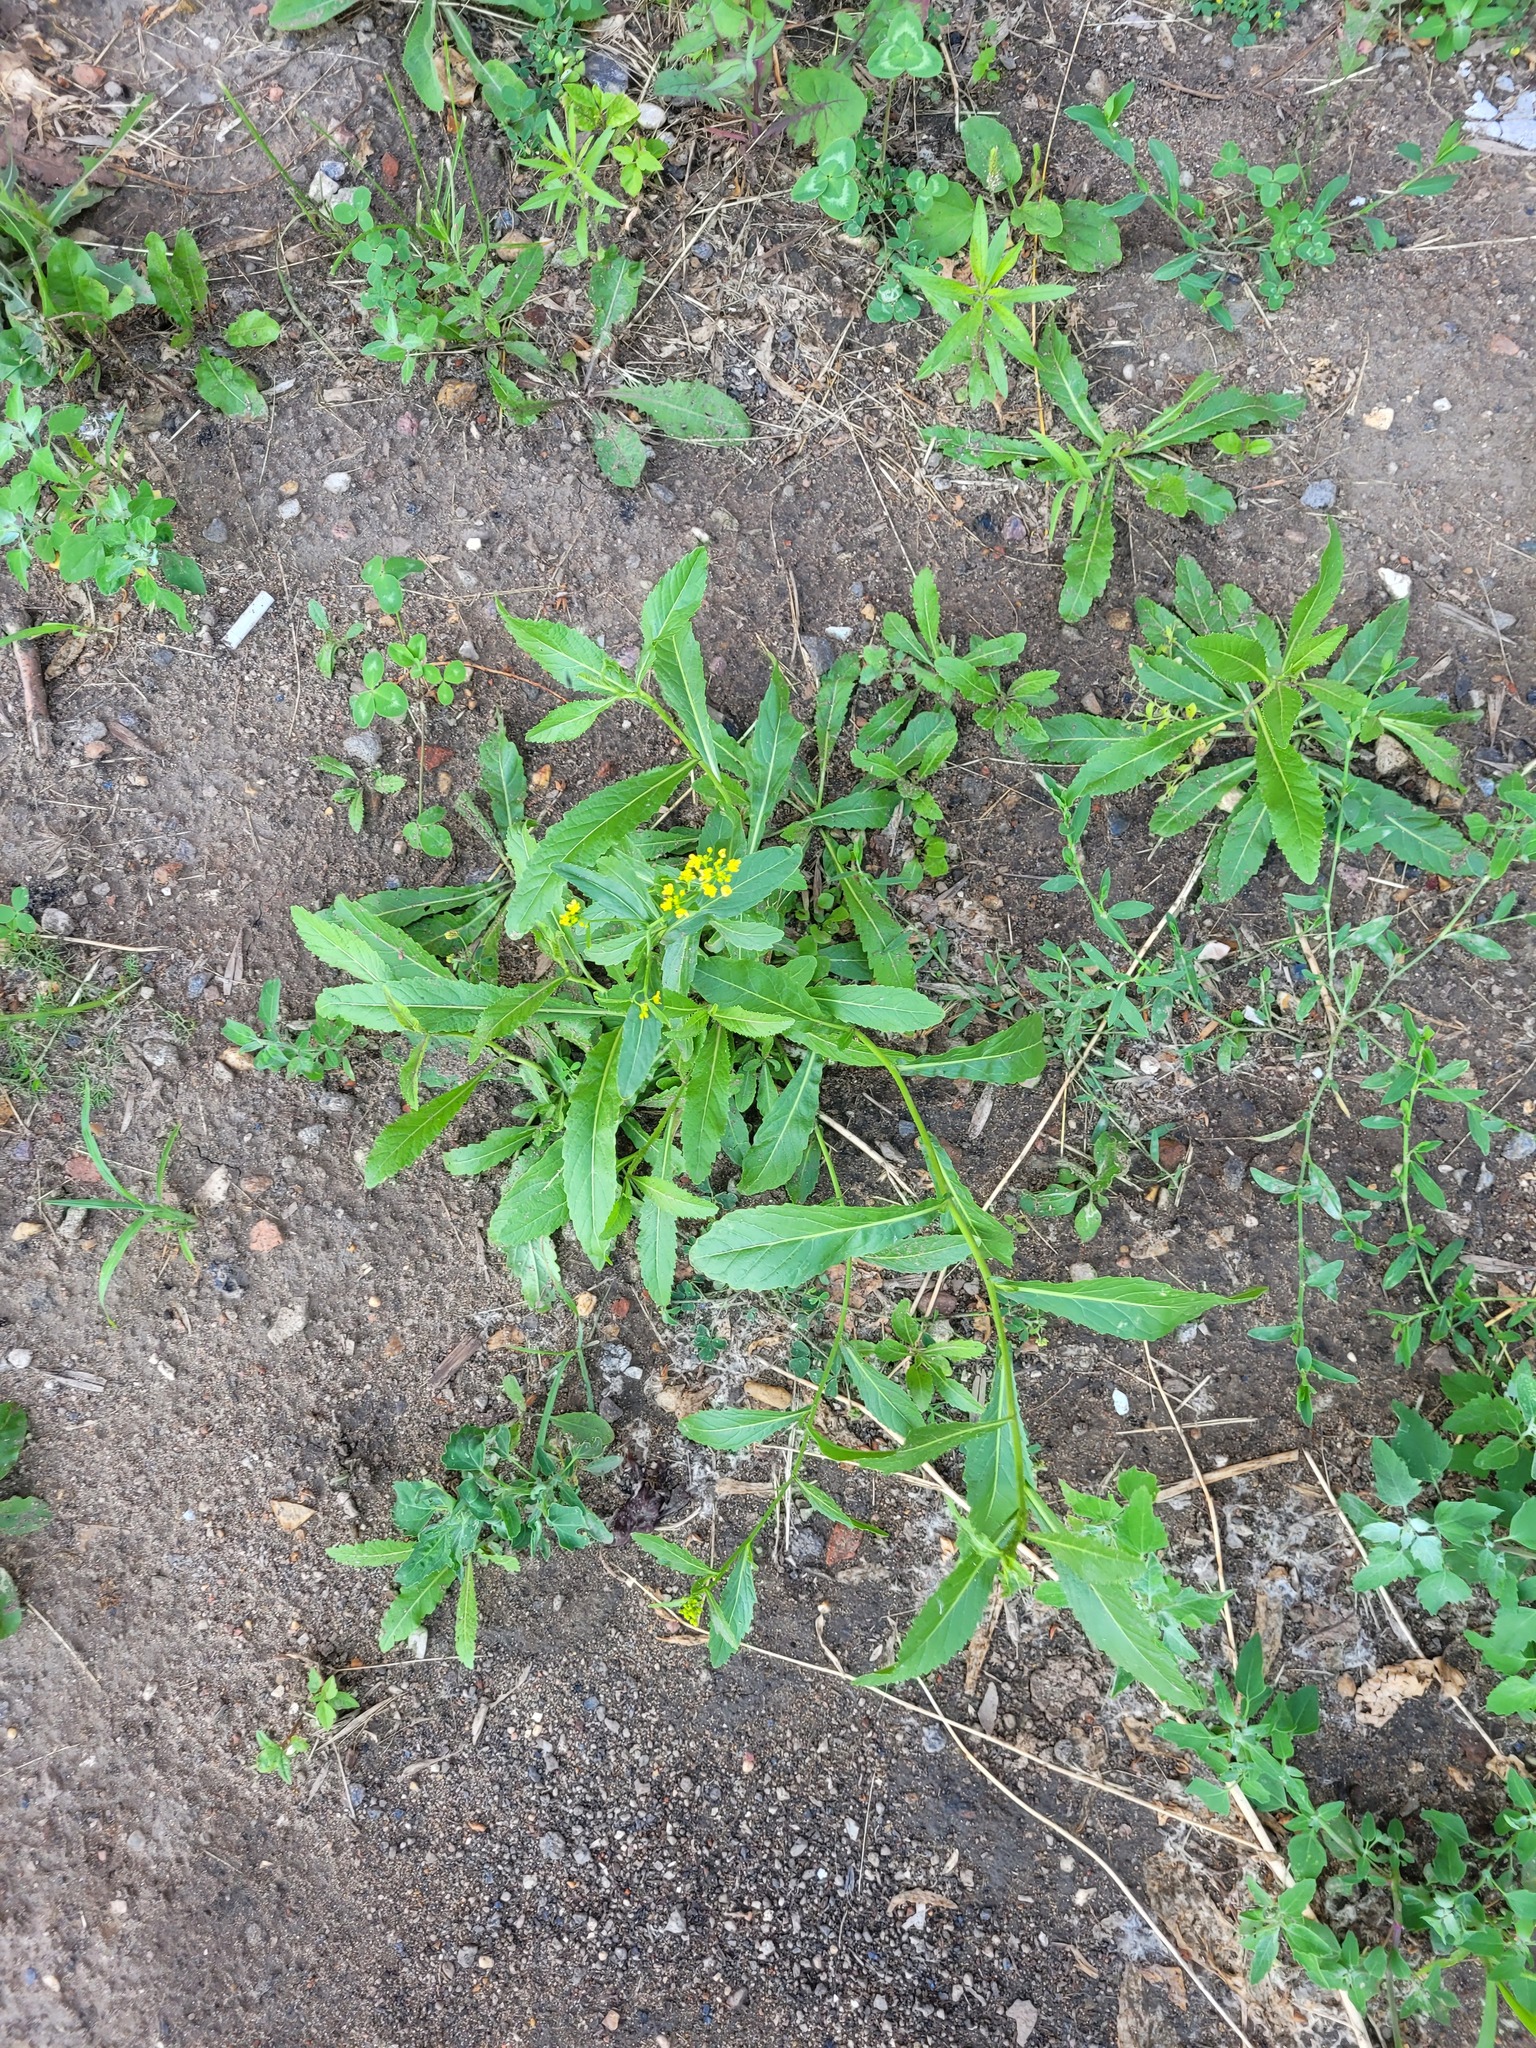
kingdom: Plantae
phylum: Tracheophyta
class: Magnoliopsida
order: Brassicales
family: Brassicaceae
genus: Rorippa
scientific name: Rorippa austriaca
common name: Austrian yellow-cress
